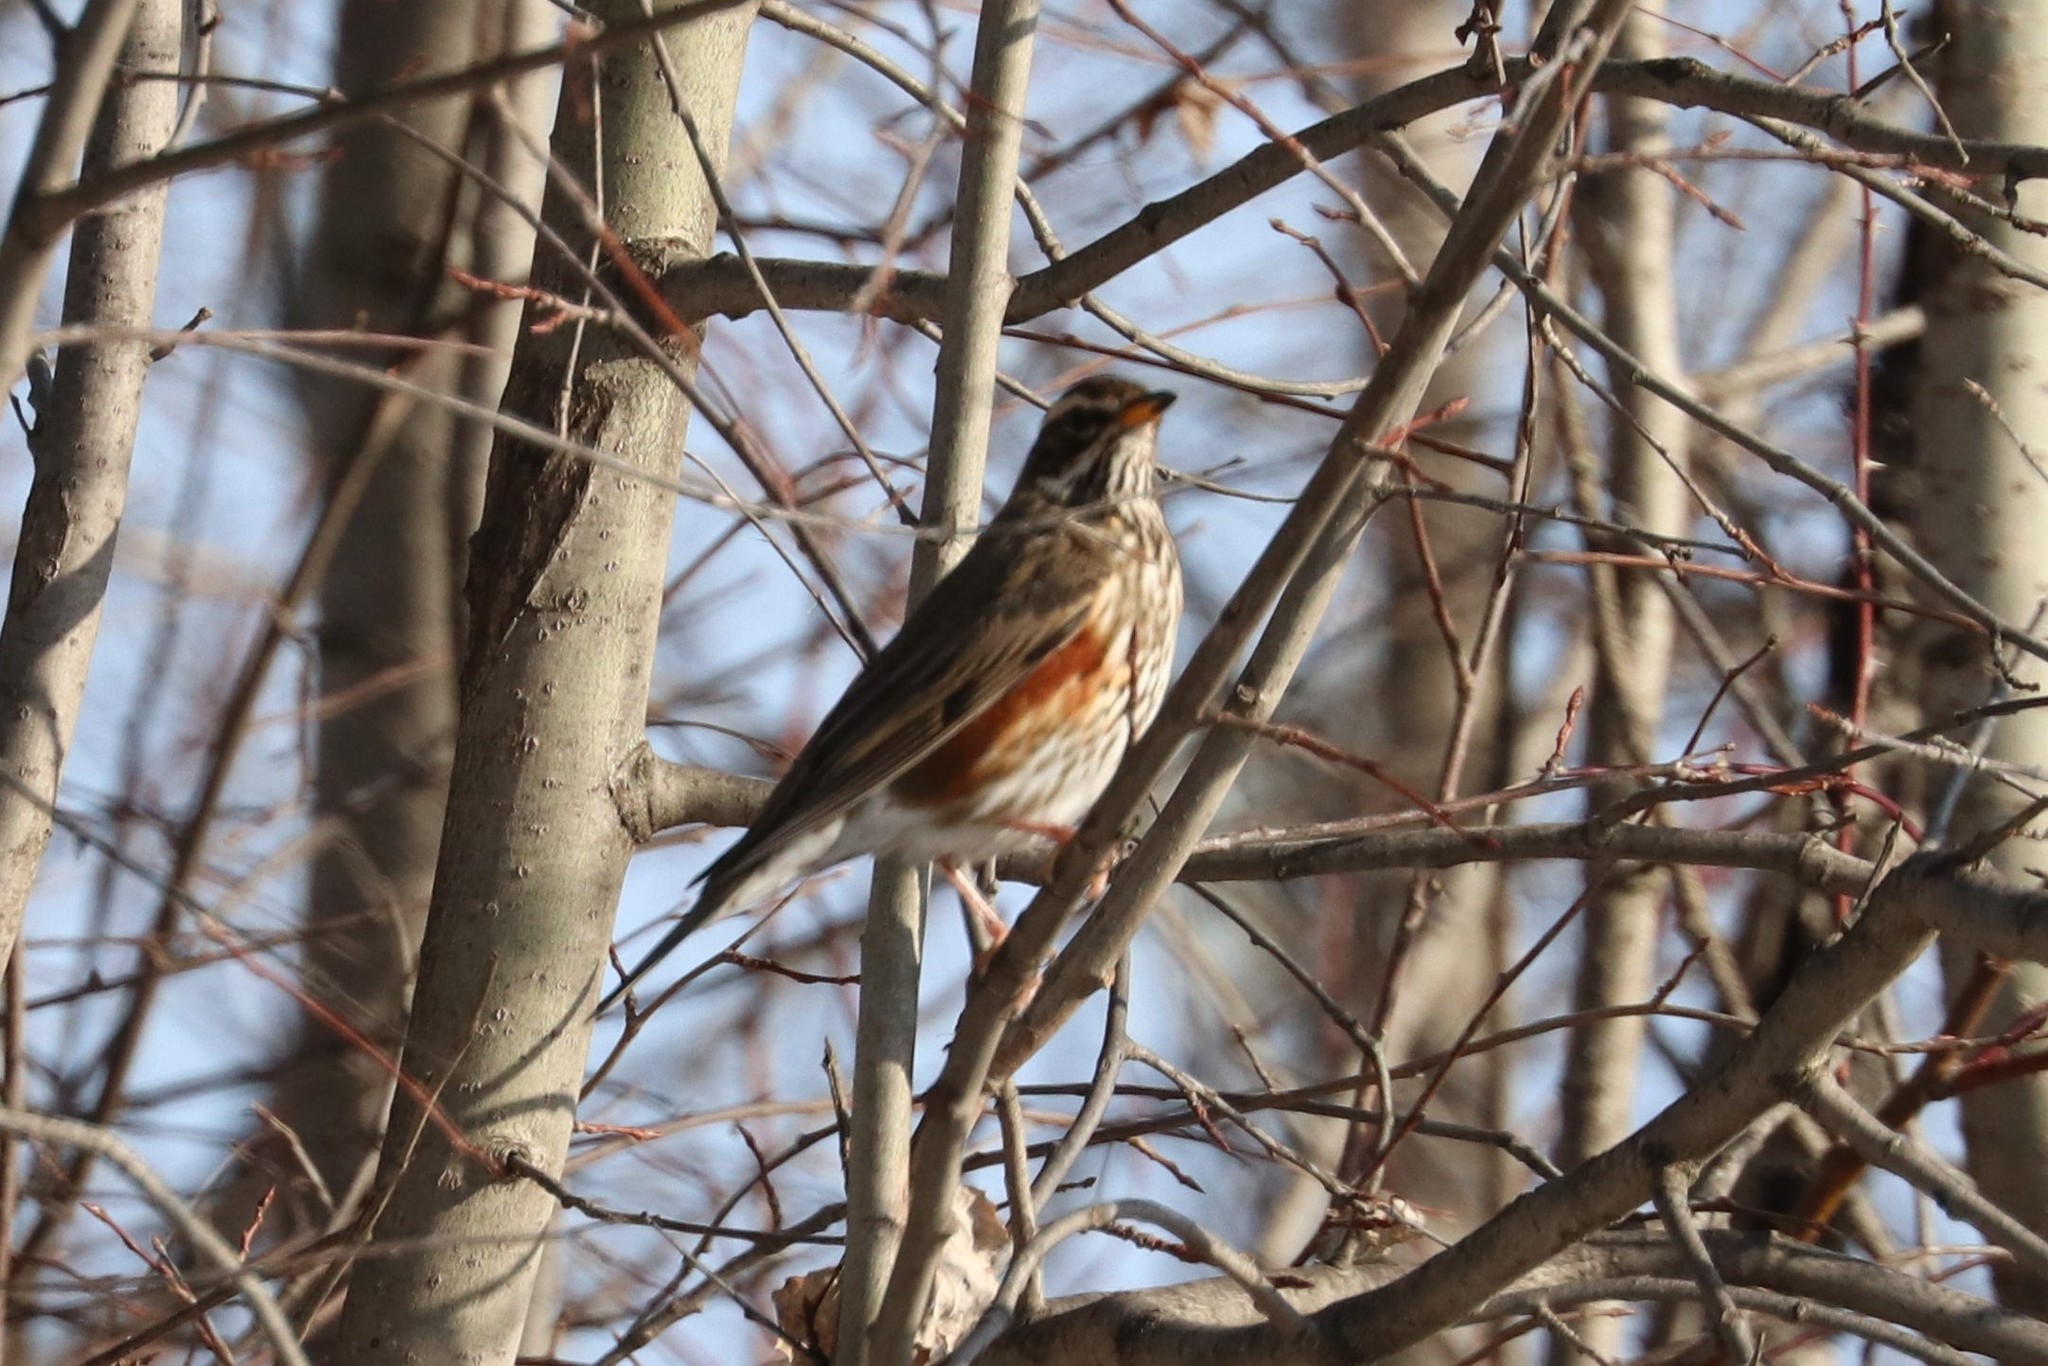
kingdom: Animalia
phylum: Chordata
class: Aves
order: Passeriformes
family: Turdidae
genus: Turdus
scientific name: Turdus iliacus
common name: Redwing
